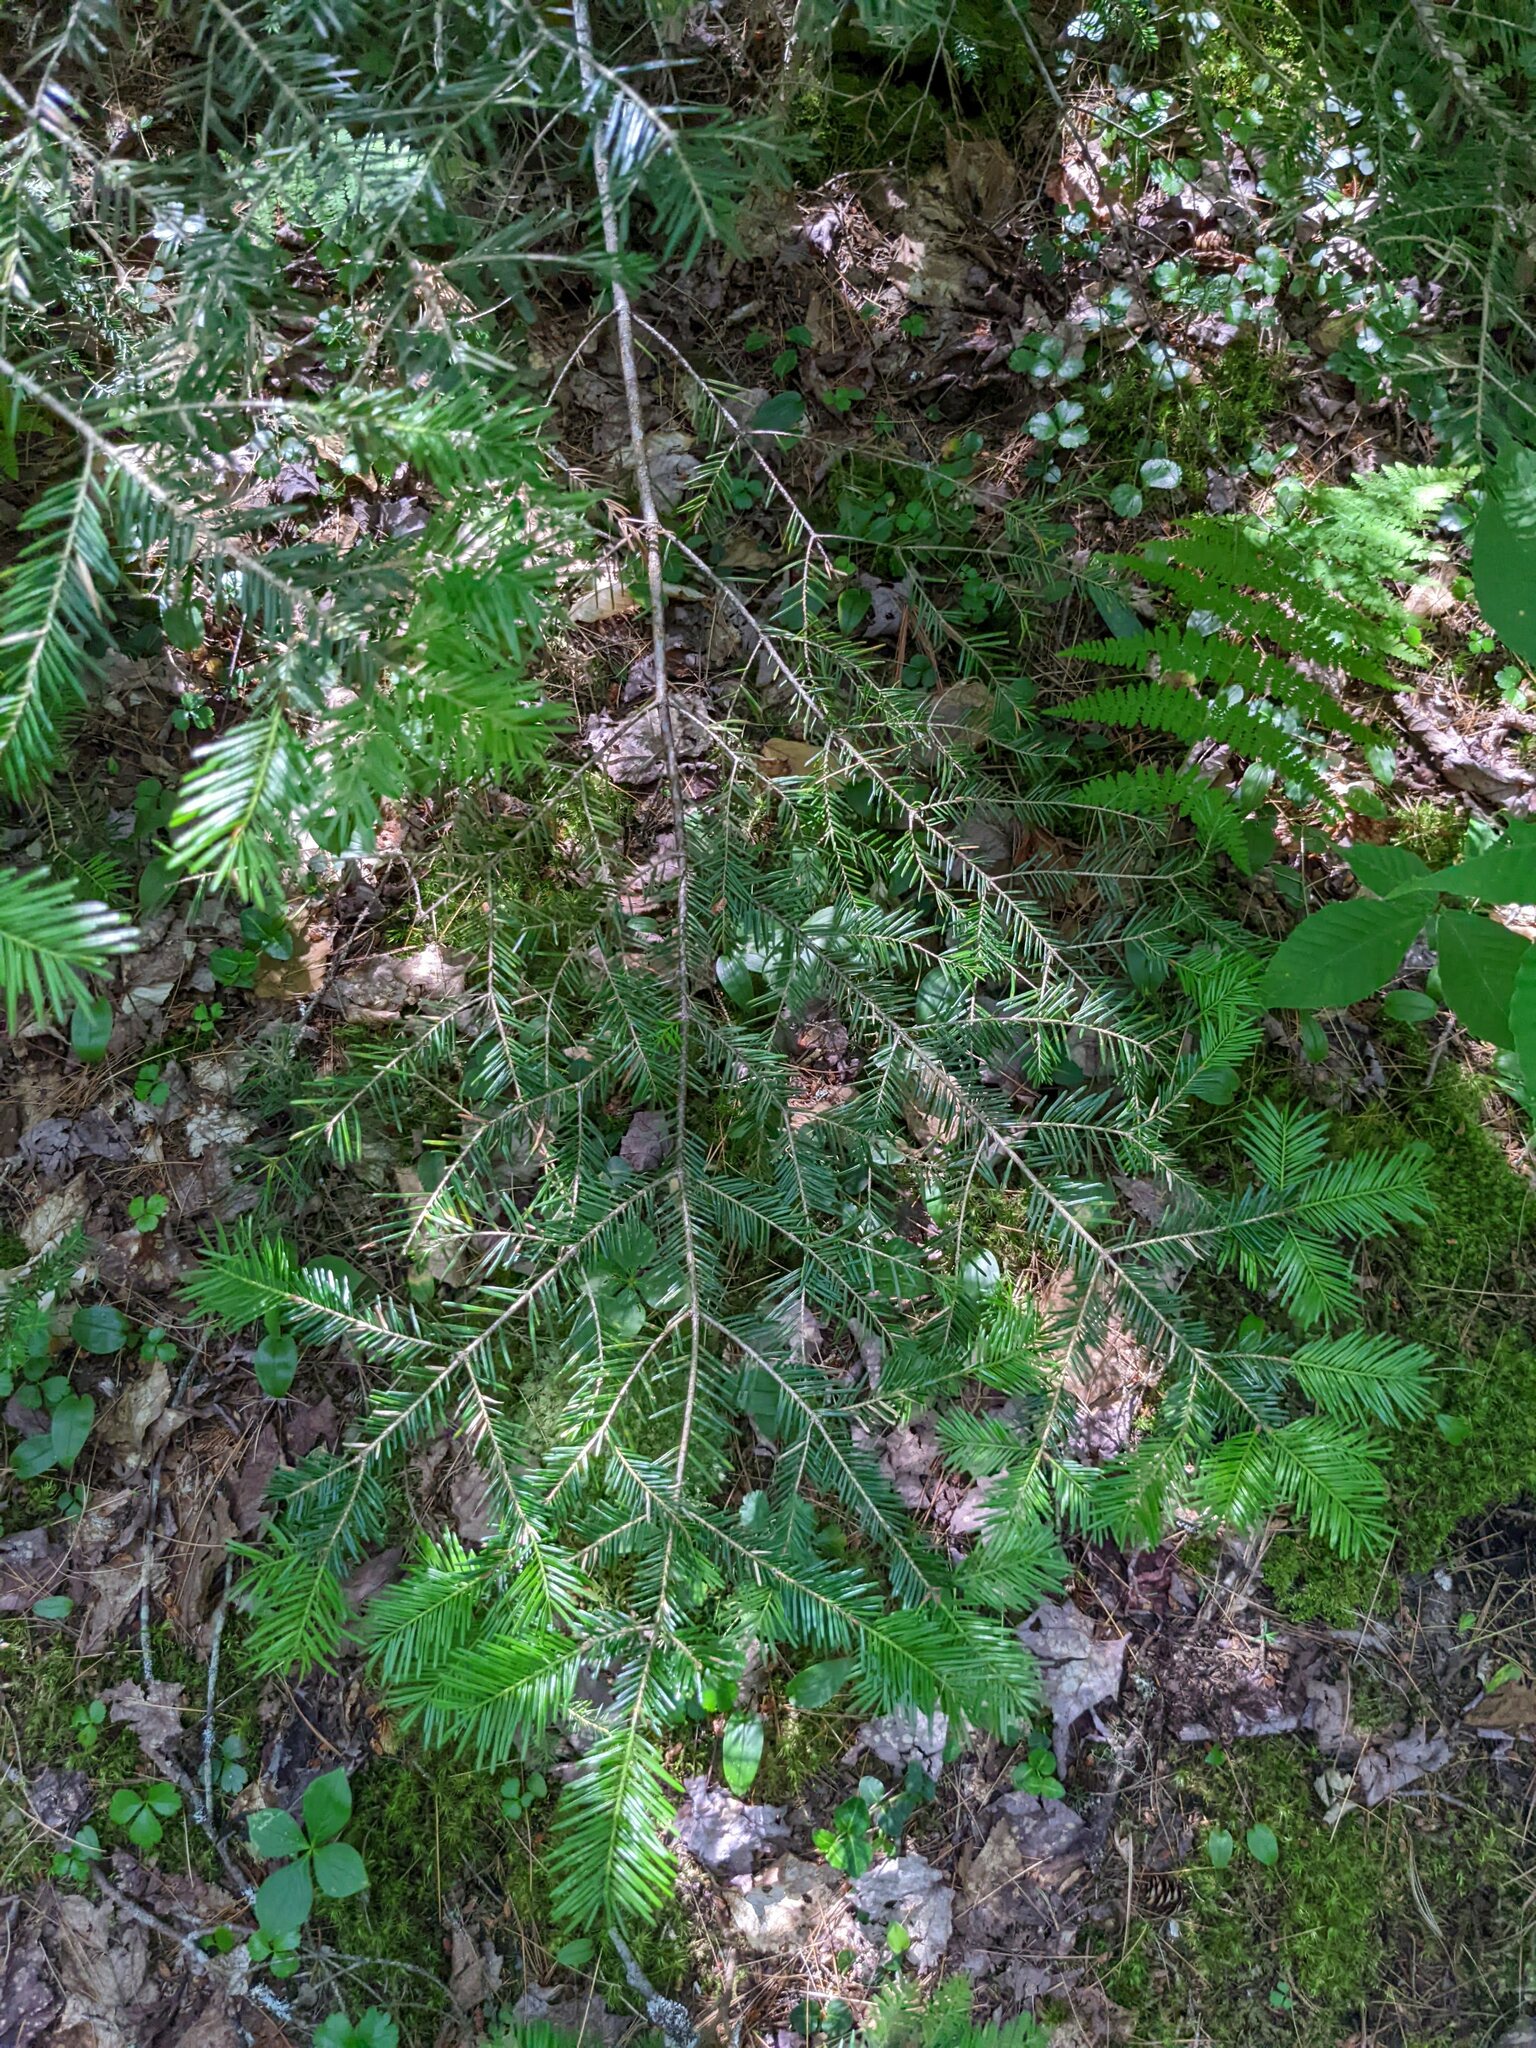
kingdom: Plantae
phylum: Tracheophyta
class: Pinopsida
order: Pinales
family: Pinaceae
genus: Abies
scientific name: Abies balsamea
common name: Balsam fir
